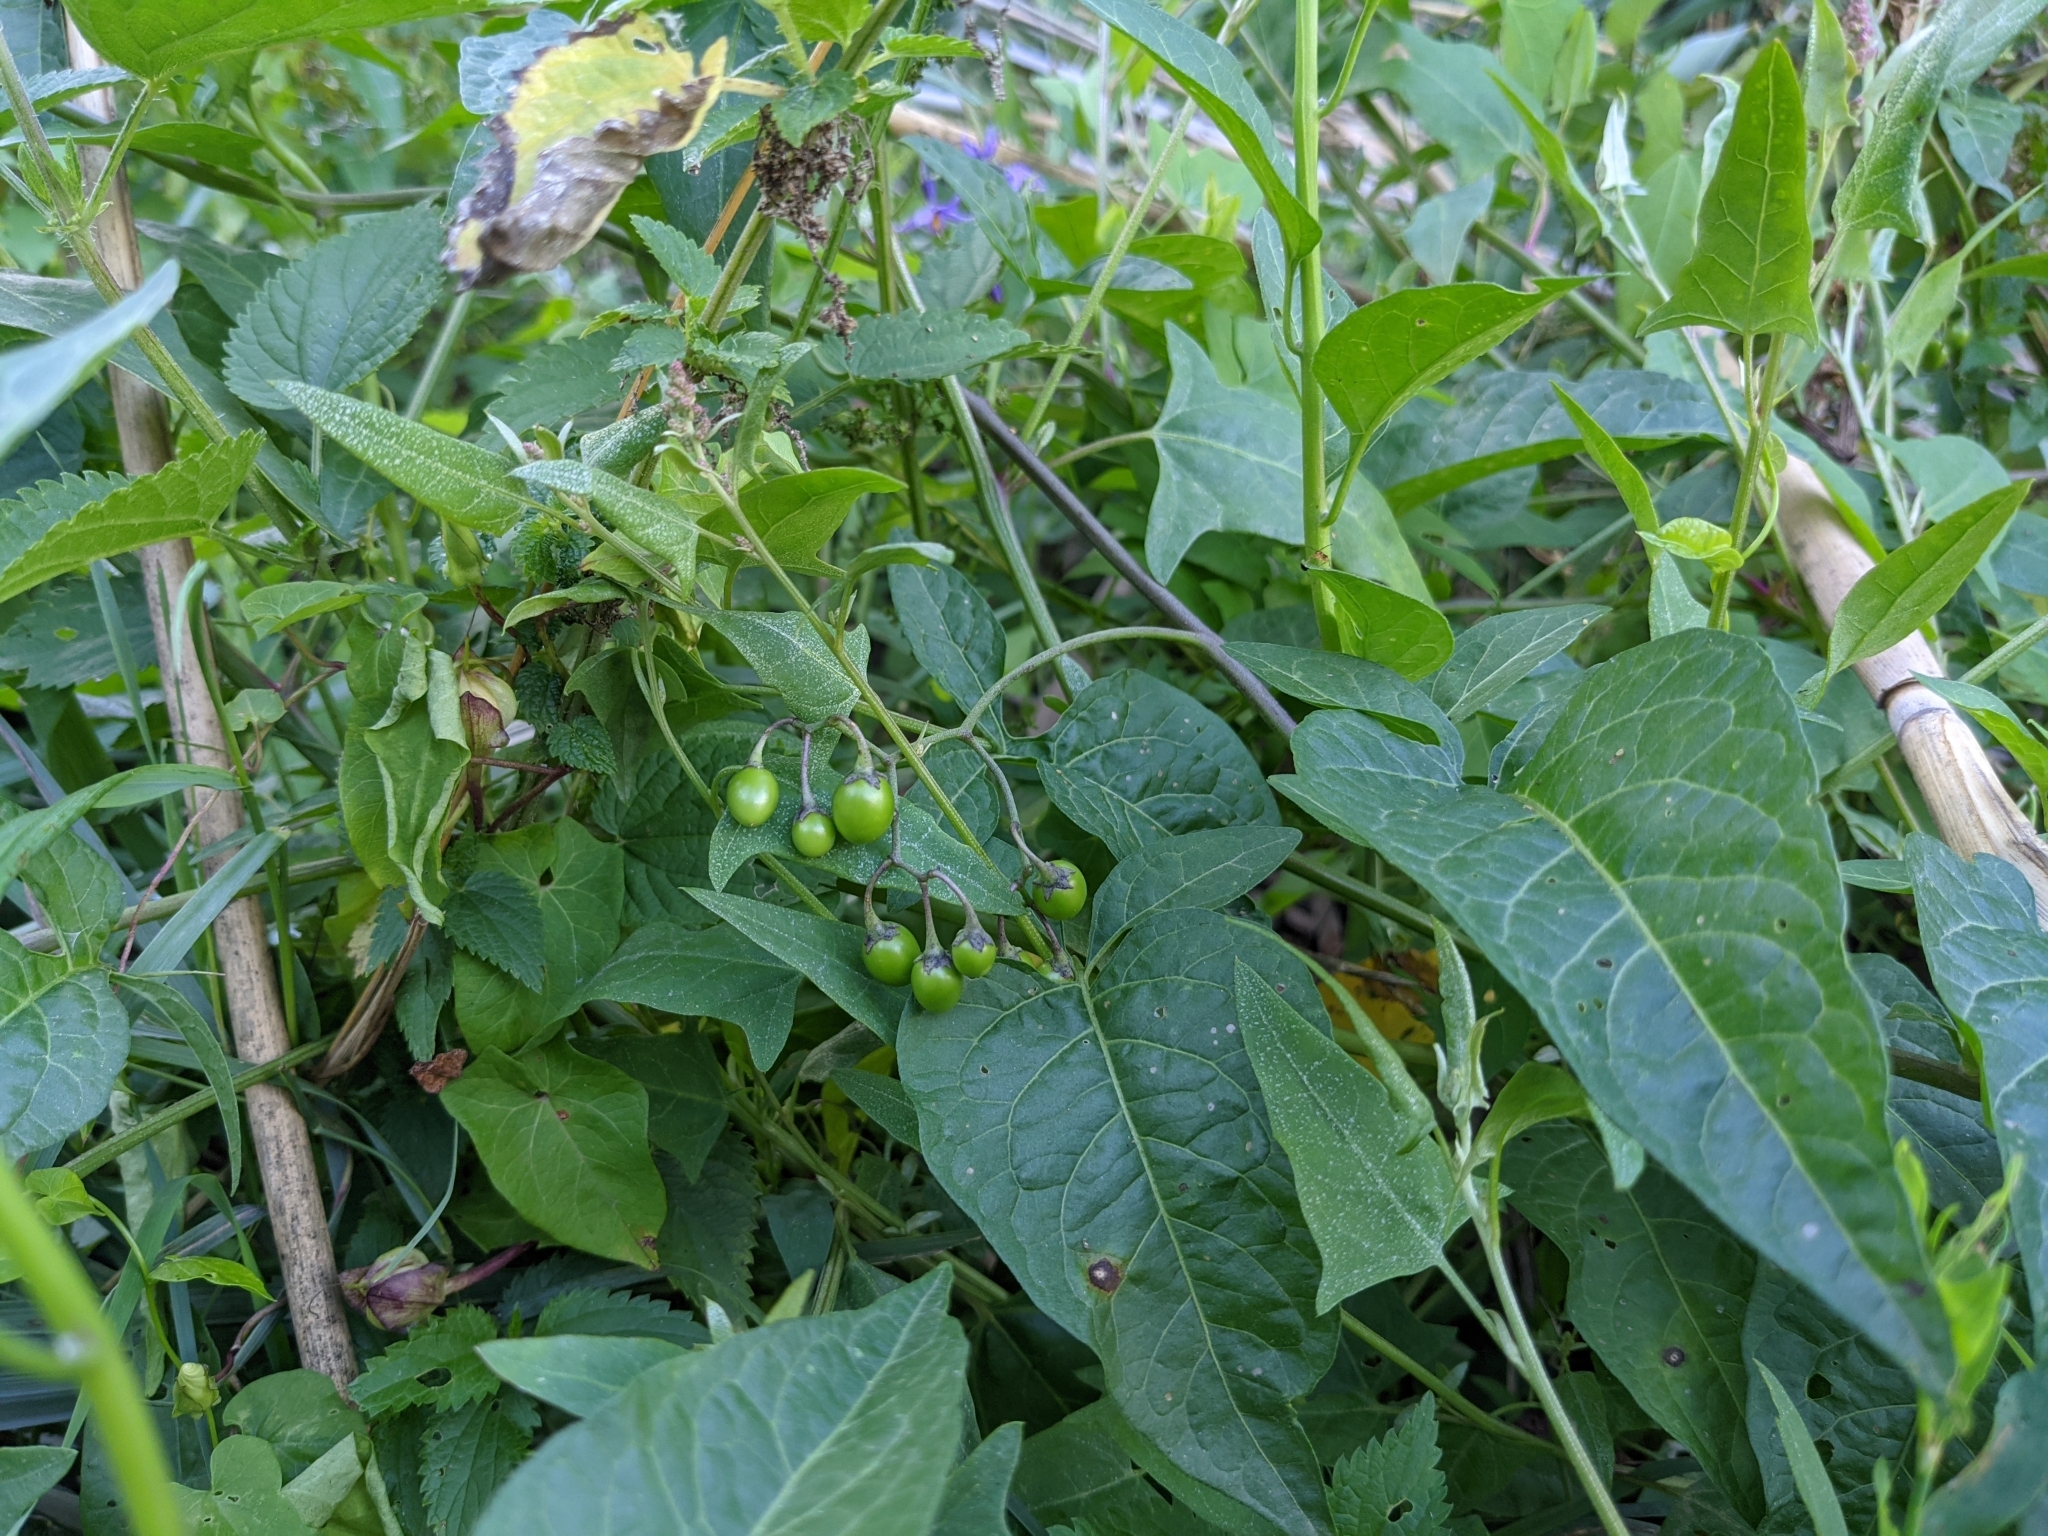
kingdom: Plantae
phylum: Tracheophyta
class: Magnoliopsida
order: Solanales
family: Solanaceae
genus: Solanum
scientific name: Solanum dulcamara
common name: Climbing nightshade
